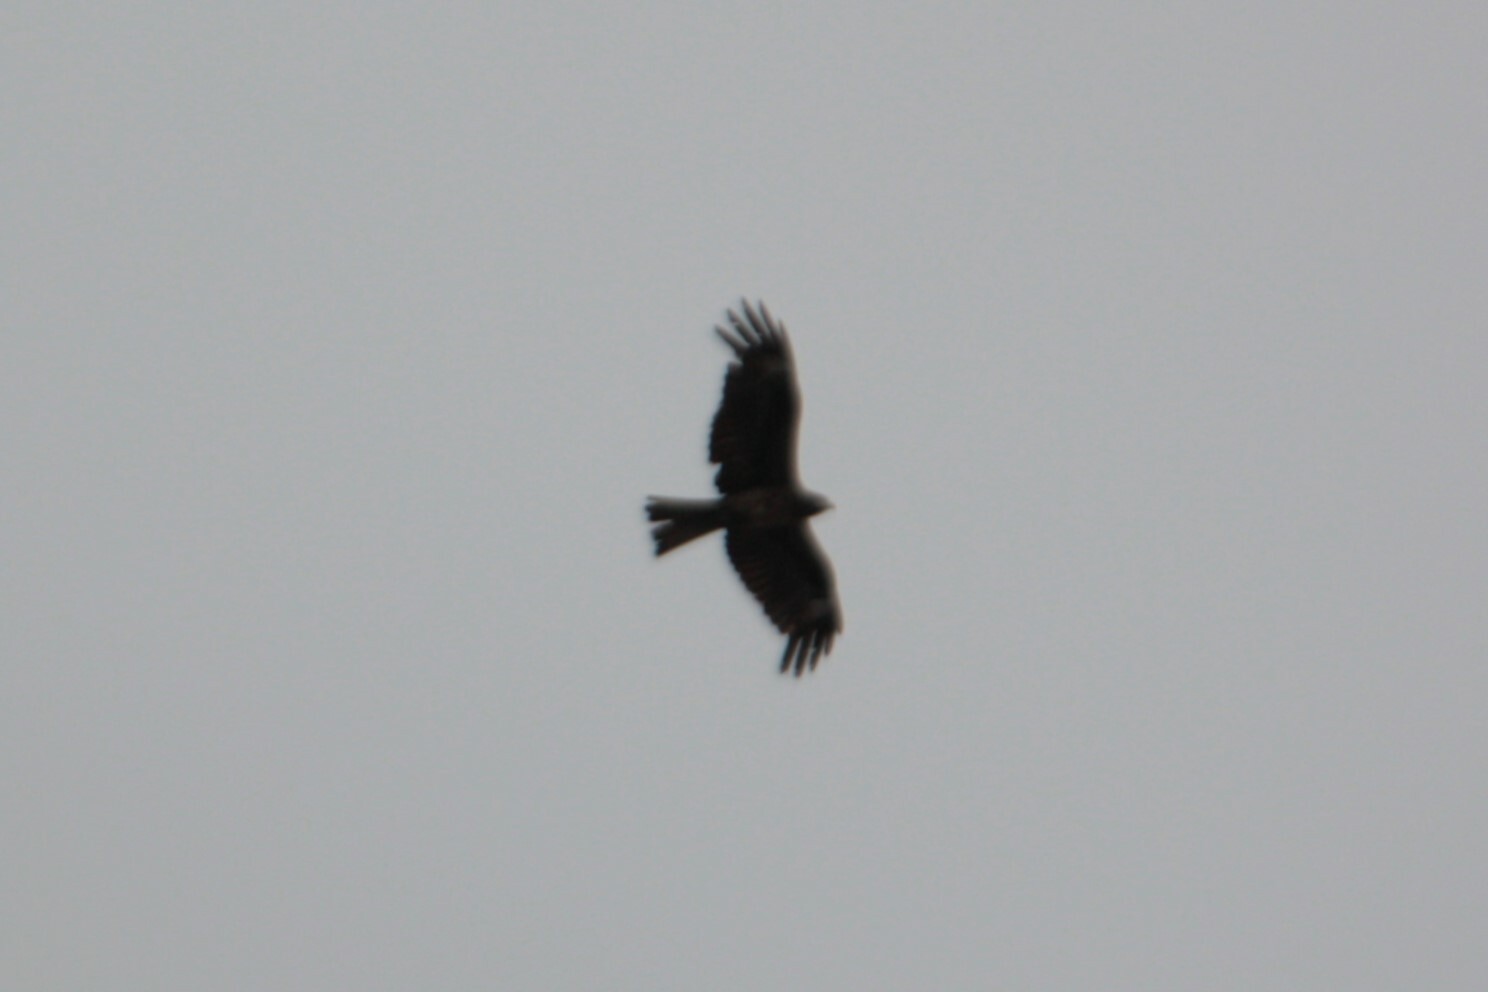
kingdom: Animalia
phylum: Chordata
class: Aves
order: Accipitriformes
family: Accipitridae
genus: Milvus
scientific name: Milvus migrans
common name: Black kite
